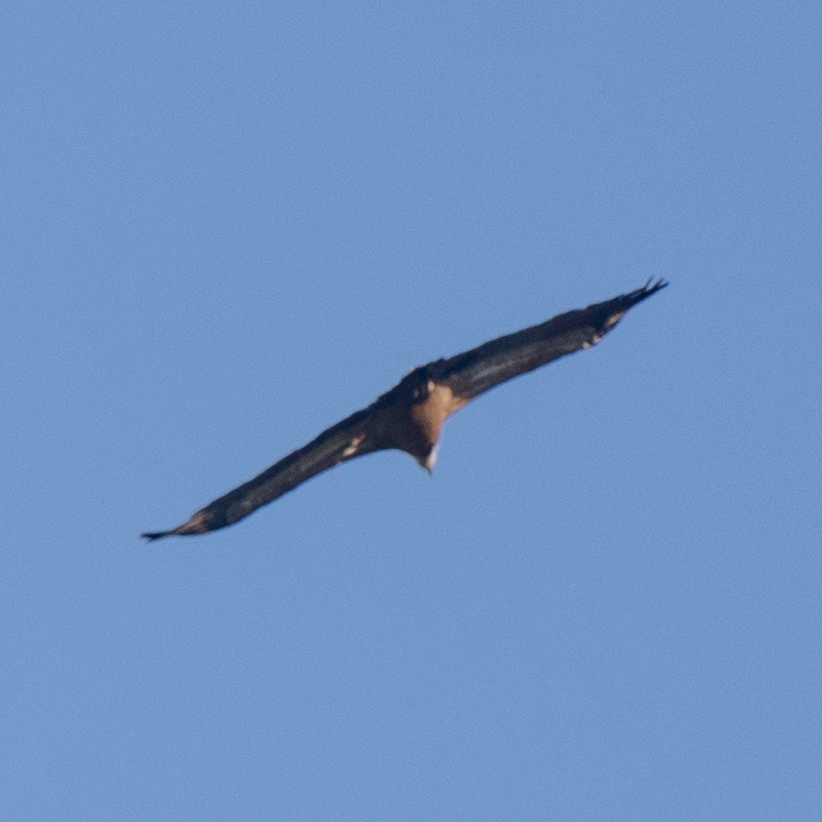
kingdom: Animalia
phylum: Chordata
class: Aves
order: Accipitriformes
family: Accipitridae
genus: Gyps
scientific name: Gyps fulvus
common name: Griffon vulture
